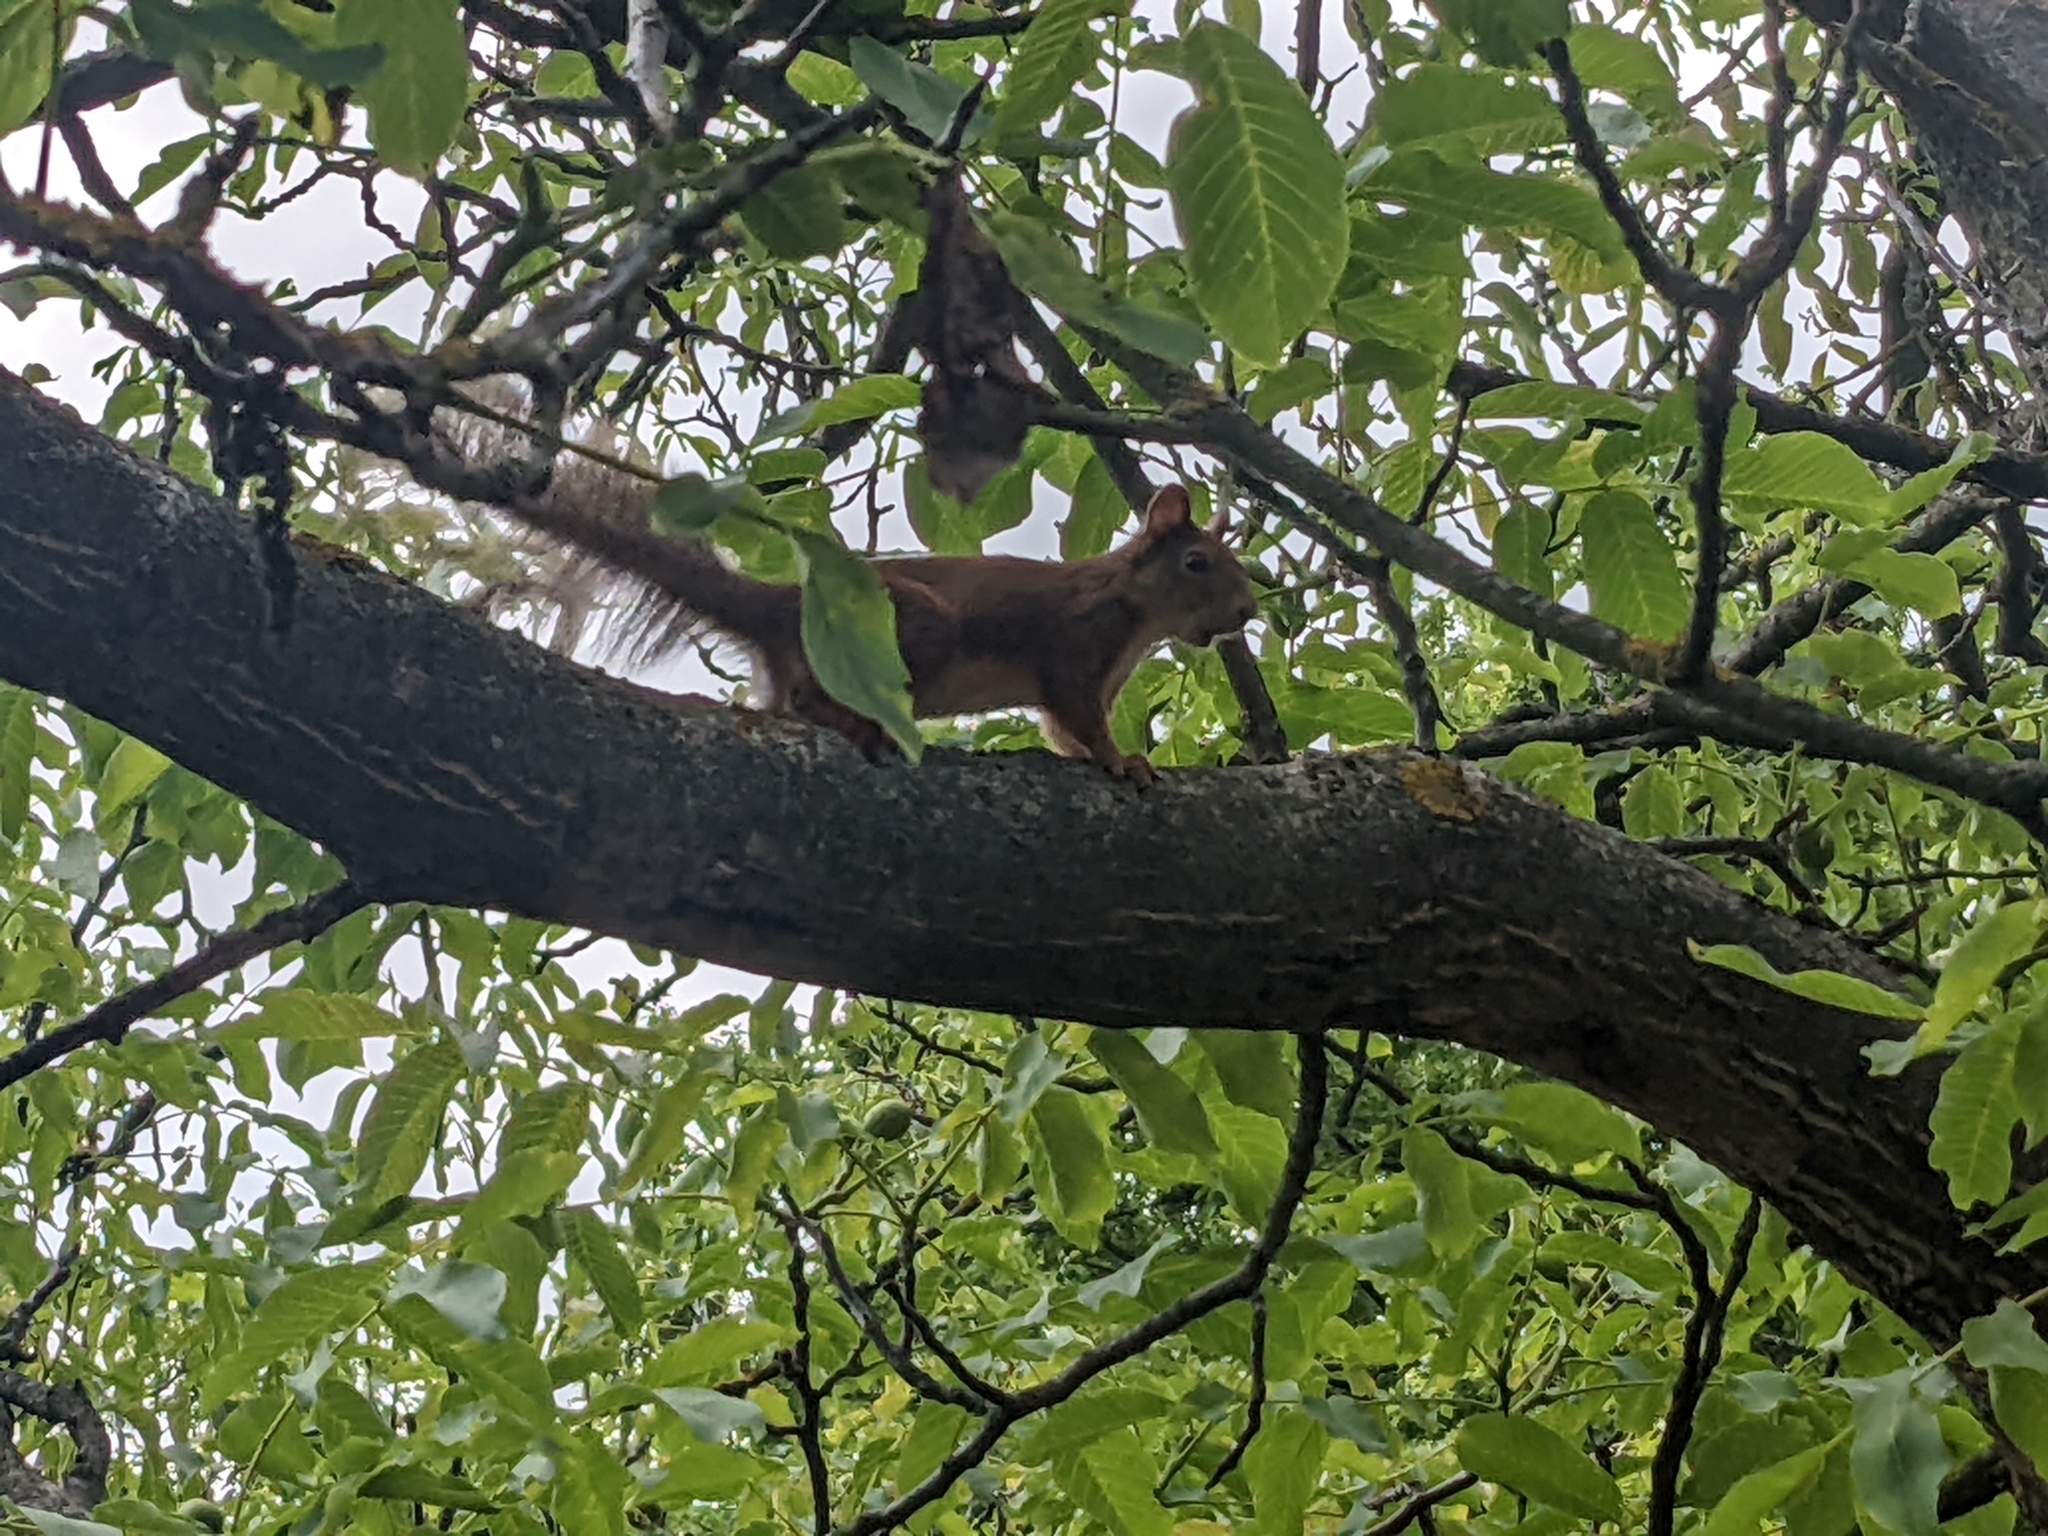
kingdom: Animalia
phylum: Chordata
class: Mammalia
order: Rodentia
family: Sciuridae
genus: Sciurus
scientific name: Sciurus vulgaris
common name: Eurasian red squirrel
